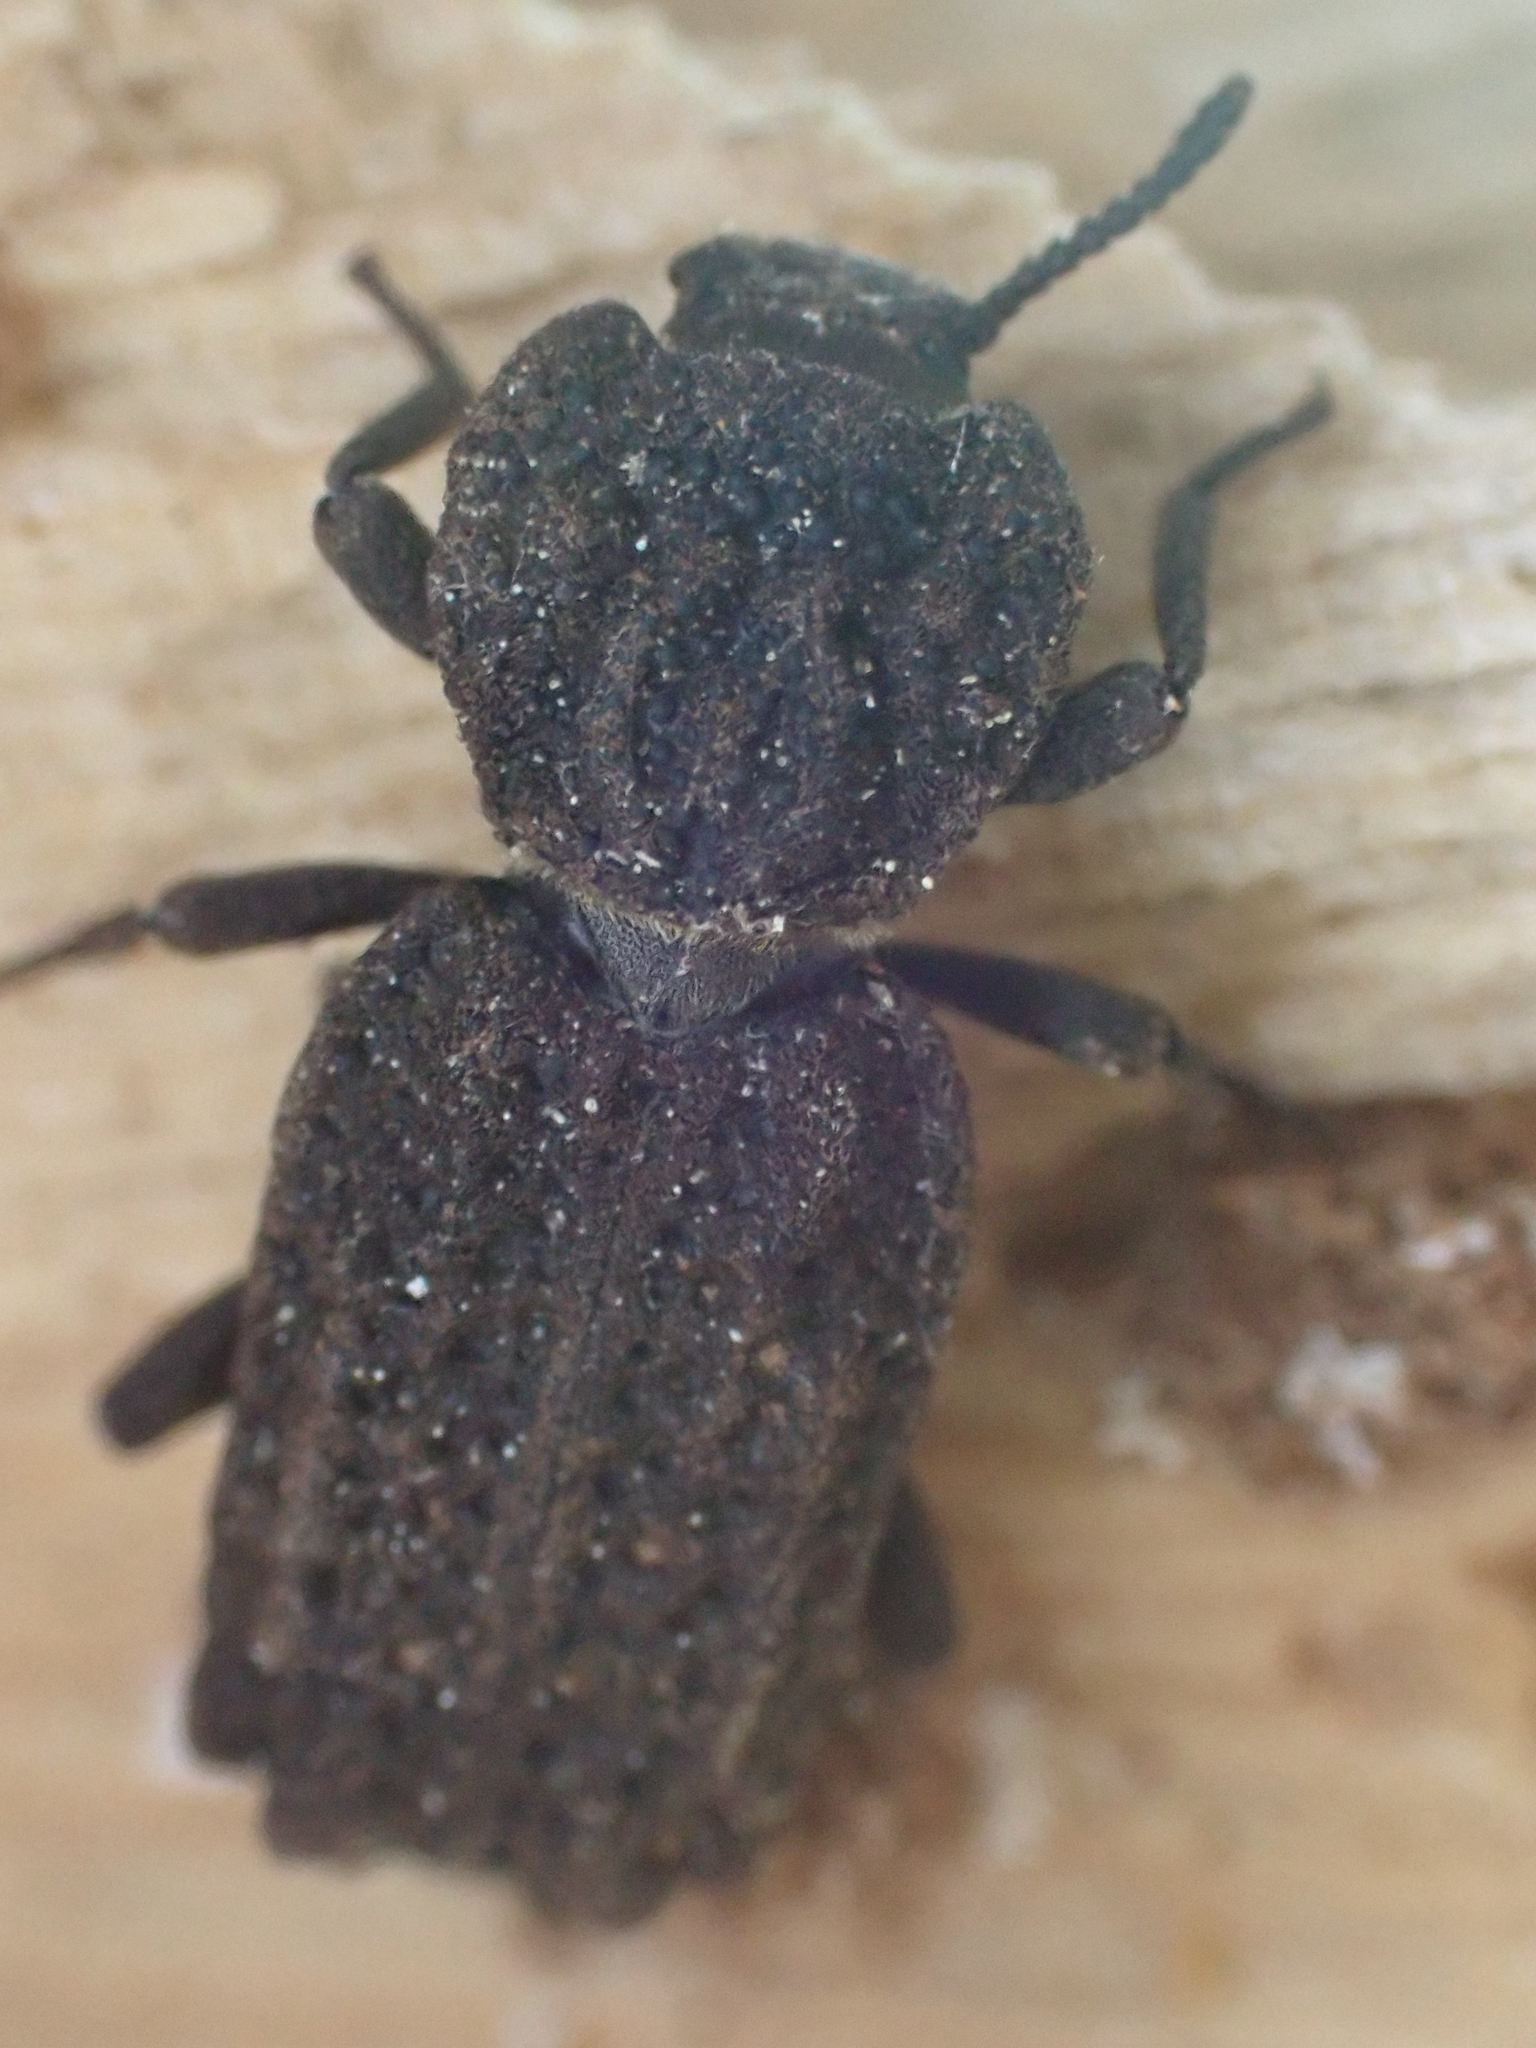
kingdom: Animalia
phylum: Arthropoda
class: Insecta
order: Coleoptera
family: Zopheridae
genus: Phellopsis
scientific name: Phellopsis porcata
